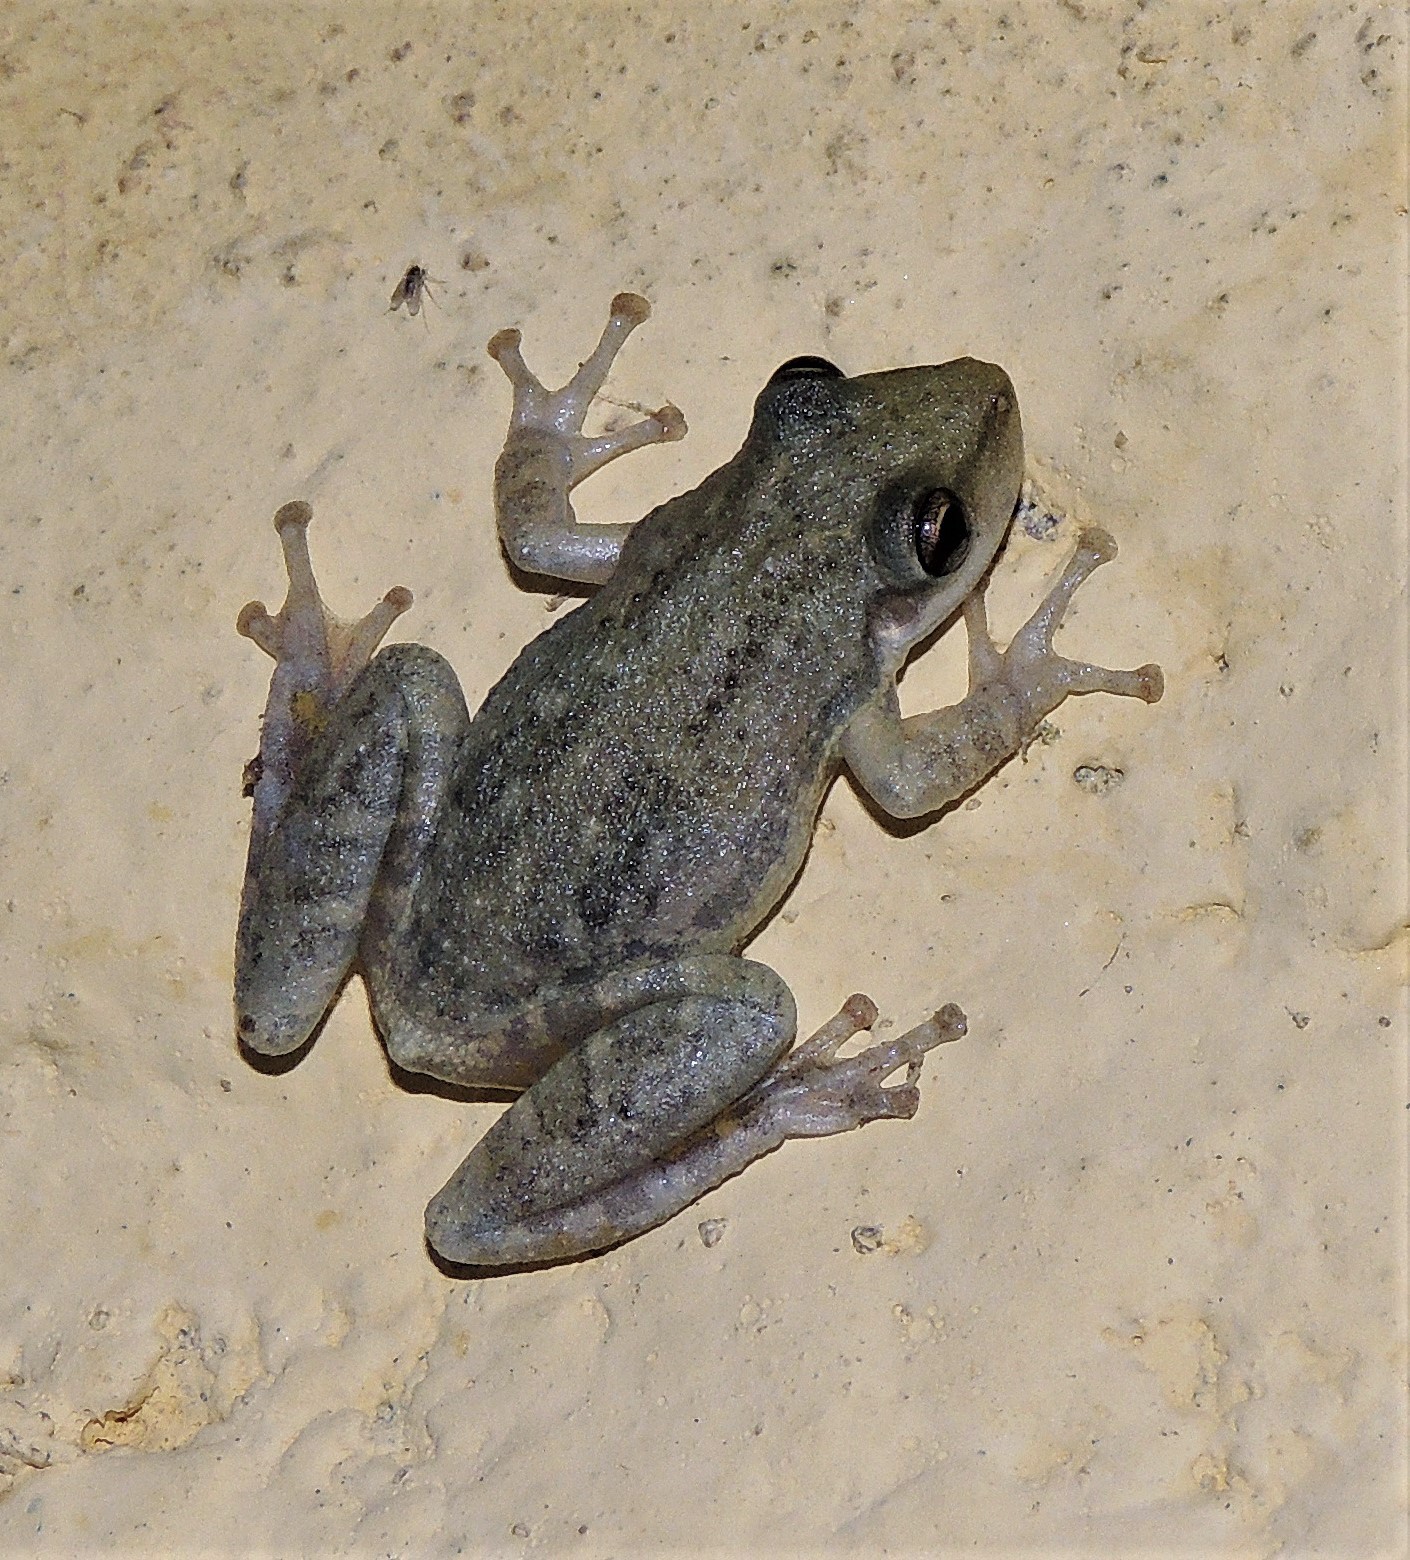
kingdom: Animalia
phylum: Chordata
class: Amphibia
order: Anura
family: Hylidae
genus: Scinax
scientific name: Scinax nasicus
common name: Lesser snouted treefrog
